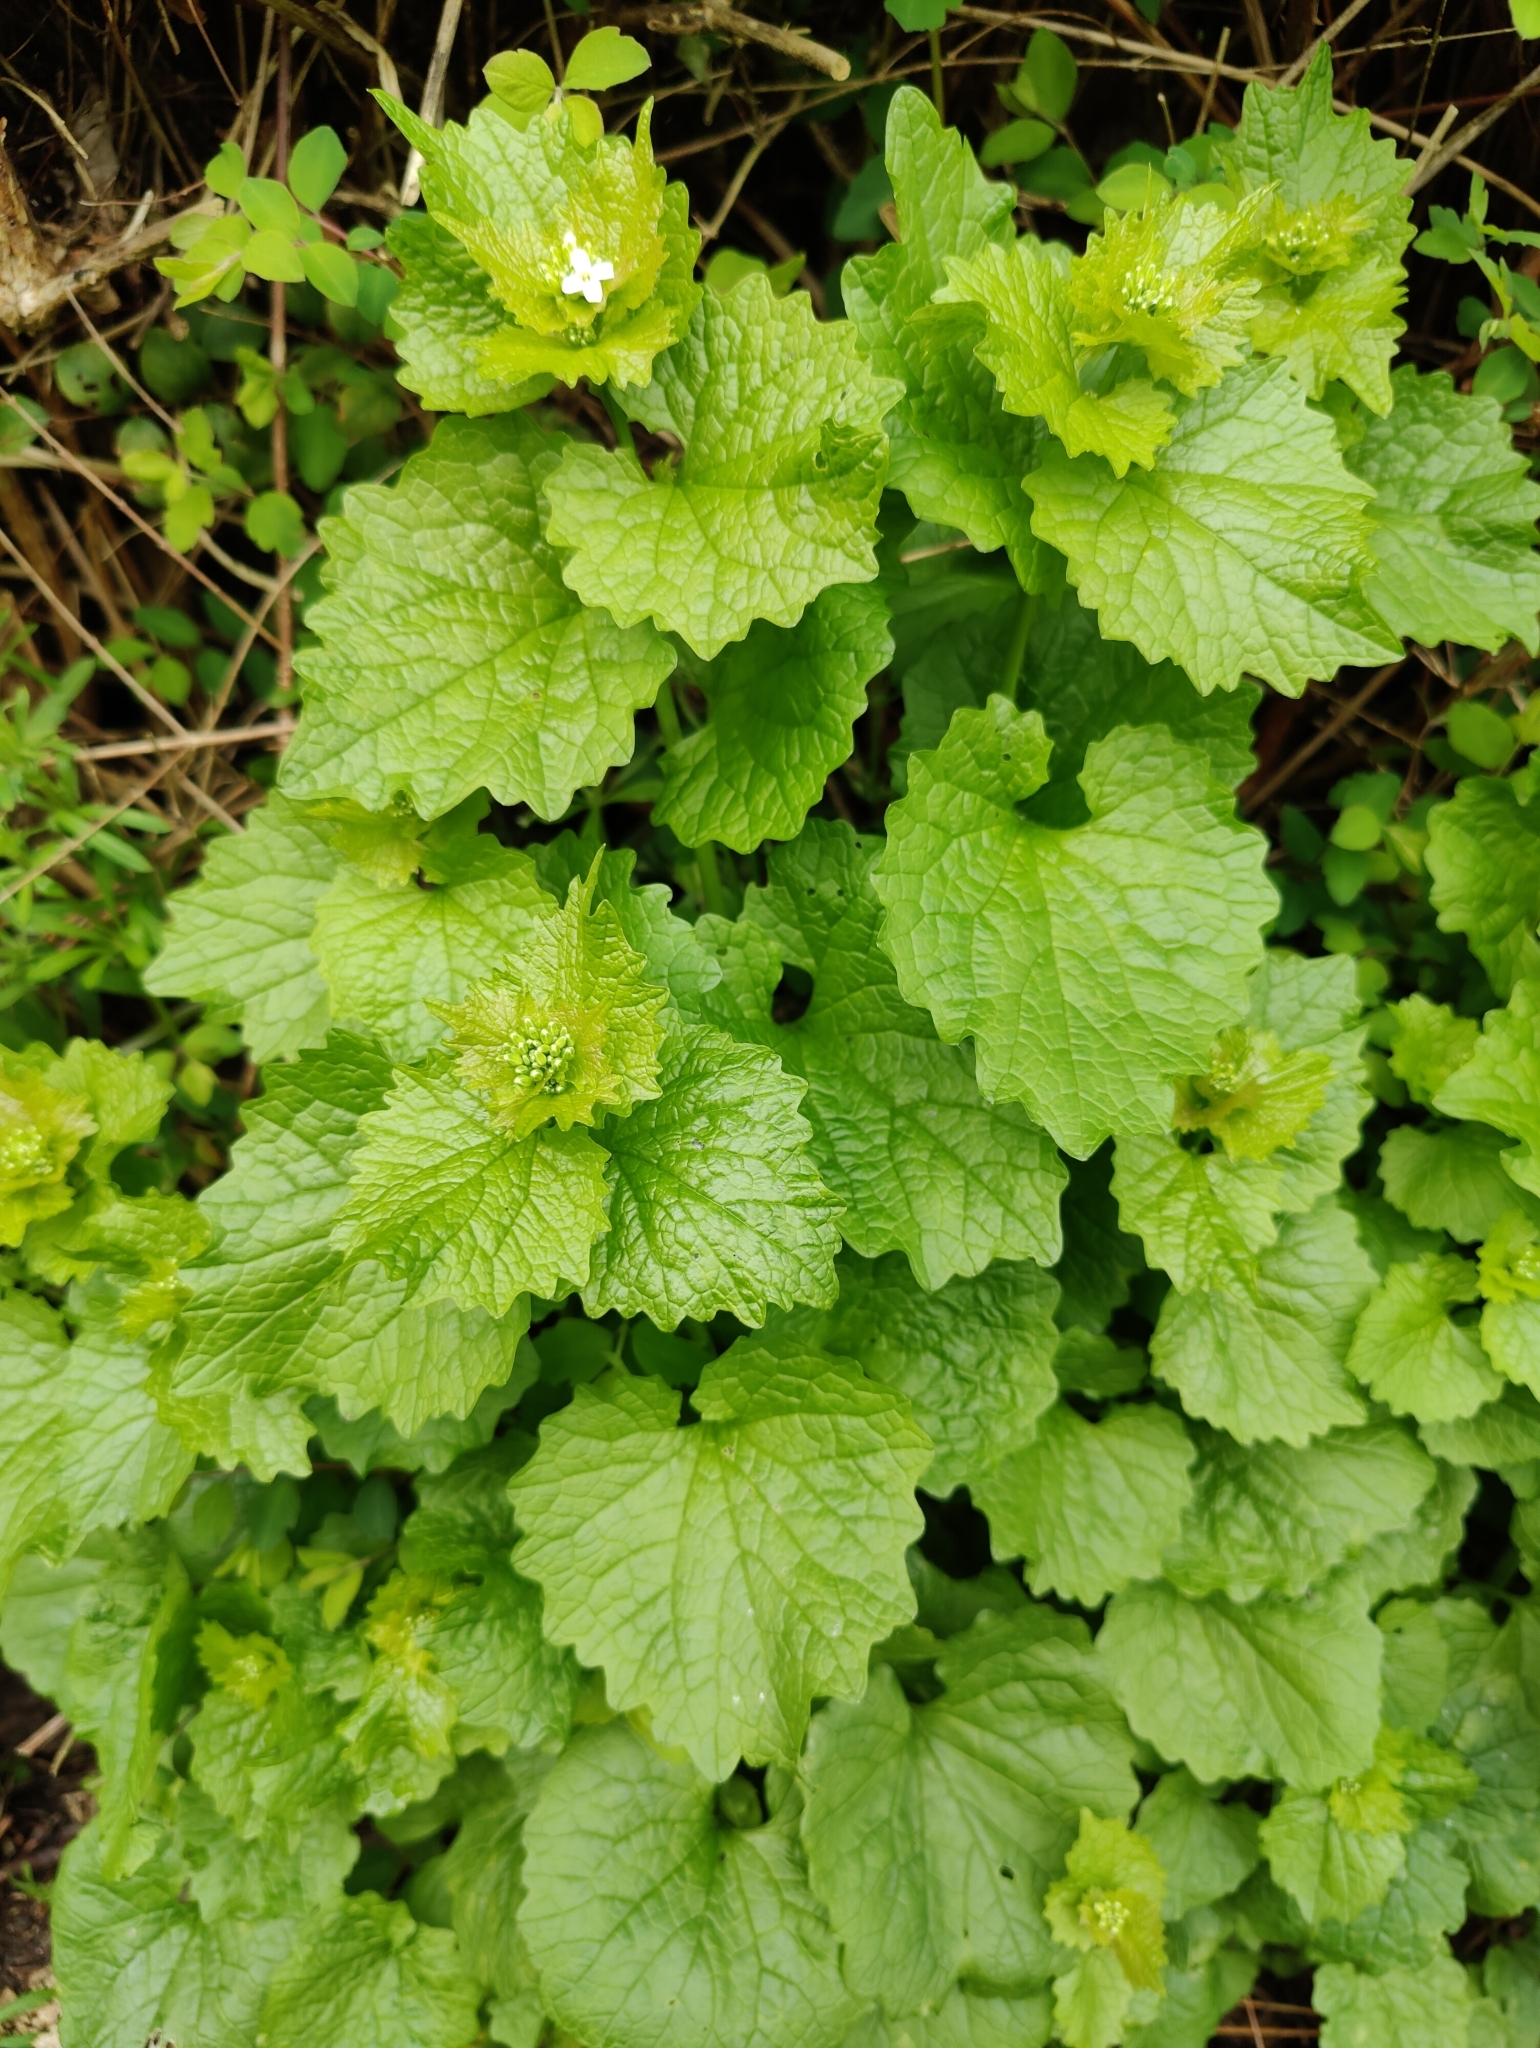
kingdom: Plantae
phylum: Tracheophyta
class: Magnoliopsida
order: Brassicales
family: Brassicaceae
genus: Alliaria
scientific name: Alliaria petiolata
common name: Garlic mustard
